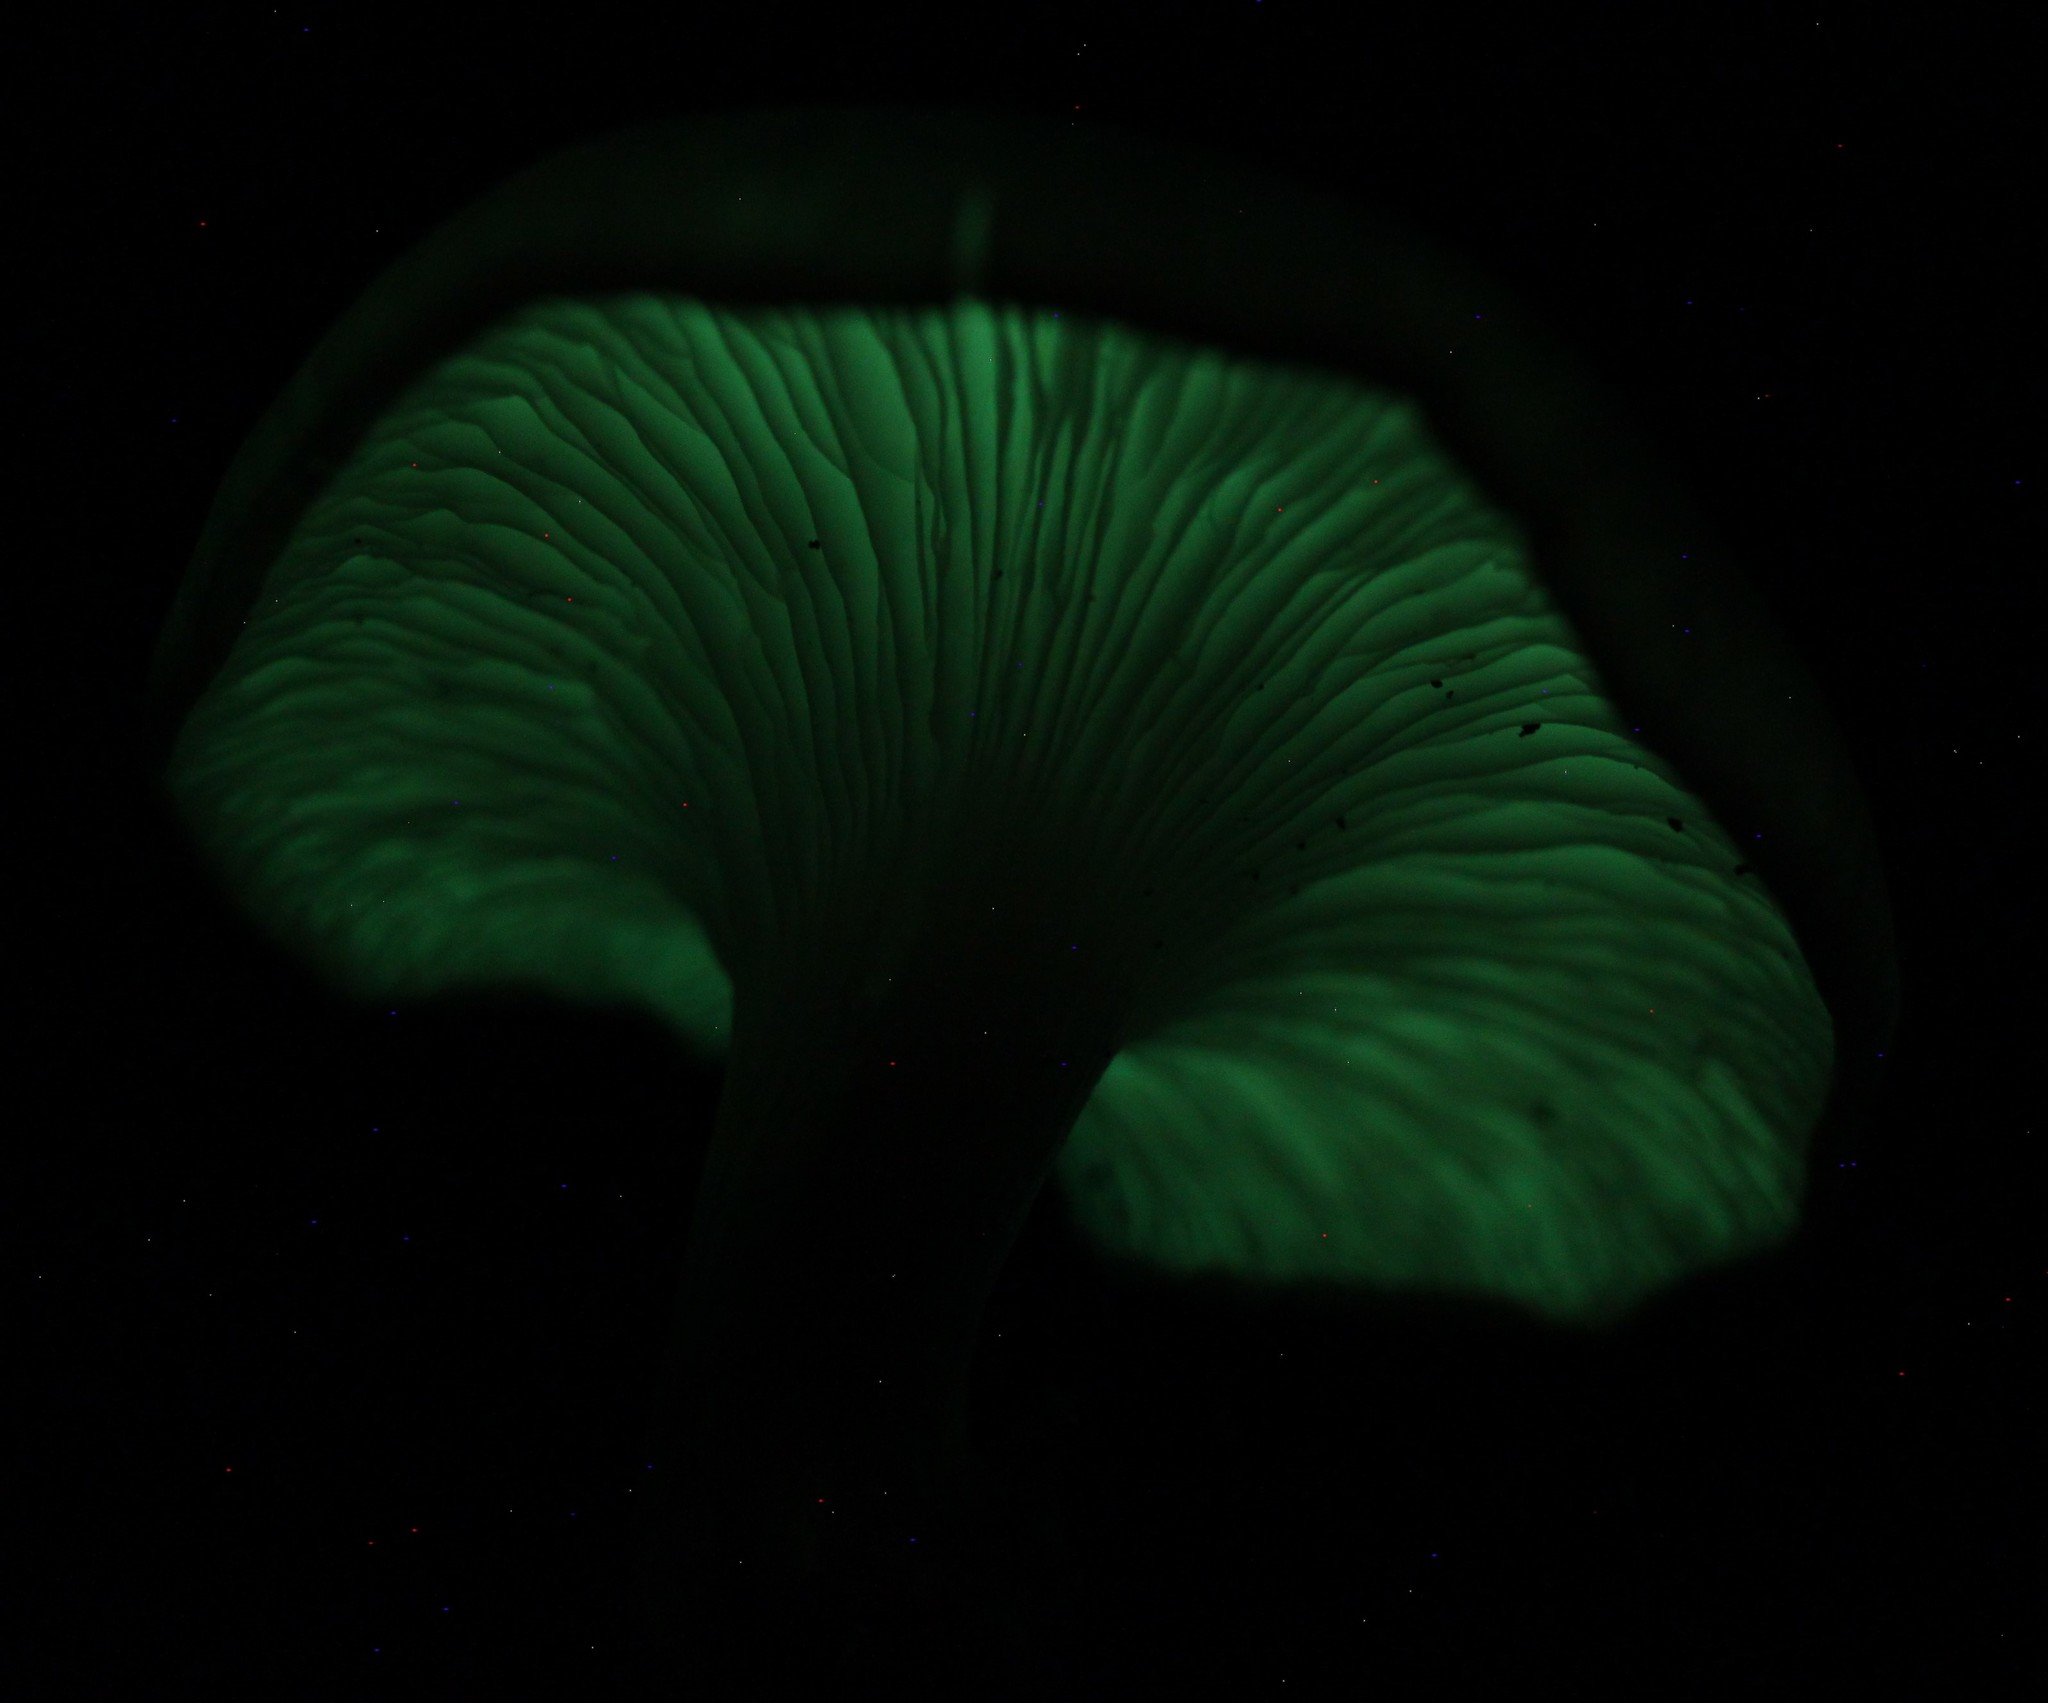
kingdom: Fungi
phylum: Basidiomycota
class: Agaricomycetes
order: Agaricales
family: Omphalotaceae
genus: Omphalotus
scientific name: Omphalotus nidiformis
